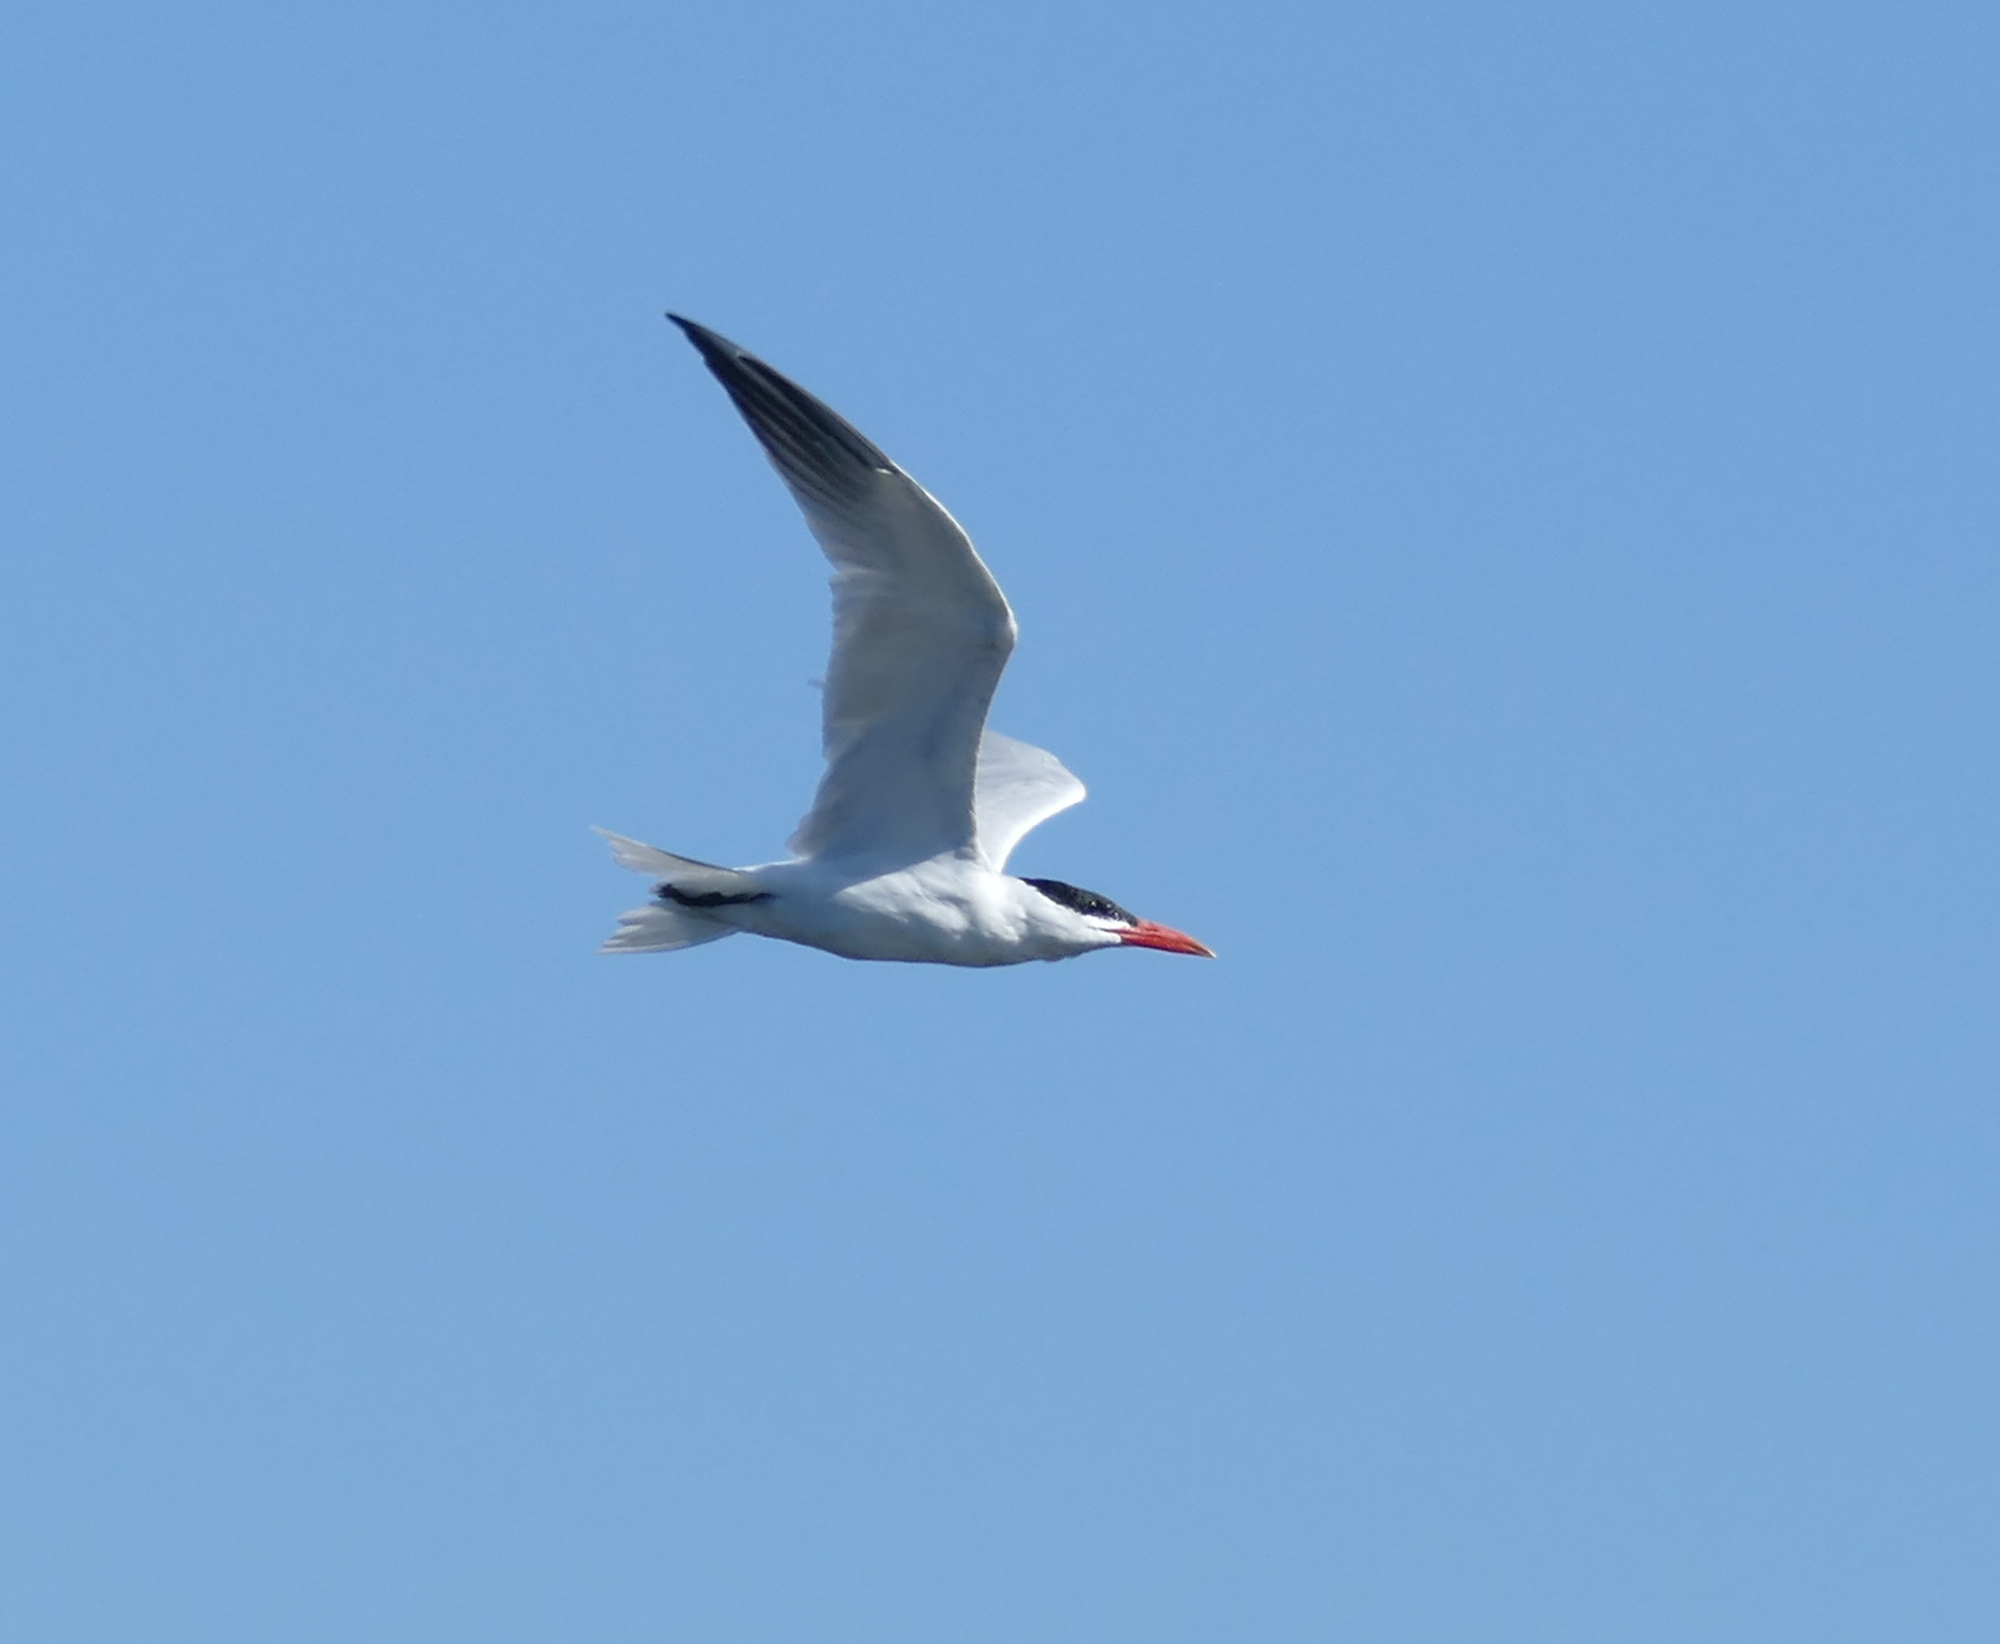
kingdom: Animalia
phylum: Chordata
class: Aves
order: Charadriiformes
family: Laridae
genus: Hydroprogne
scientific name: Hydroprogne caspia
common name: Caspian tern
